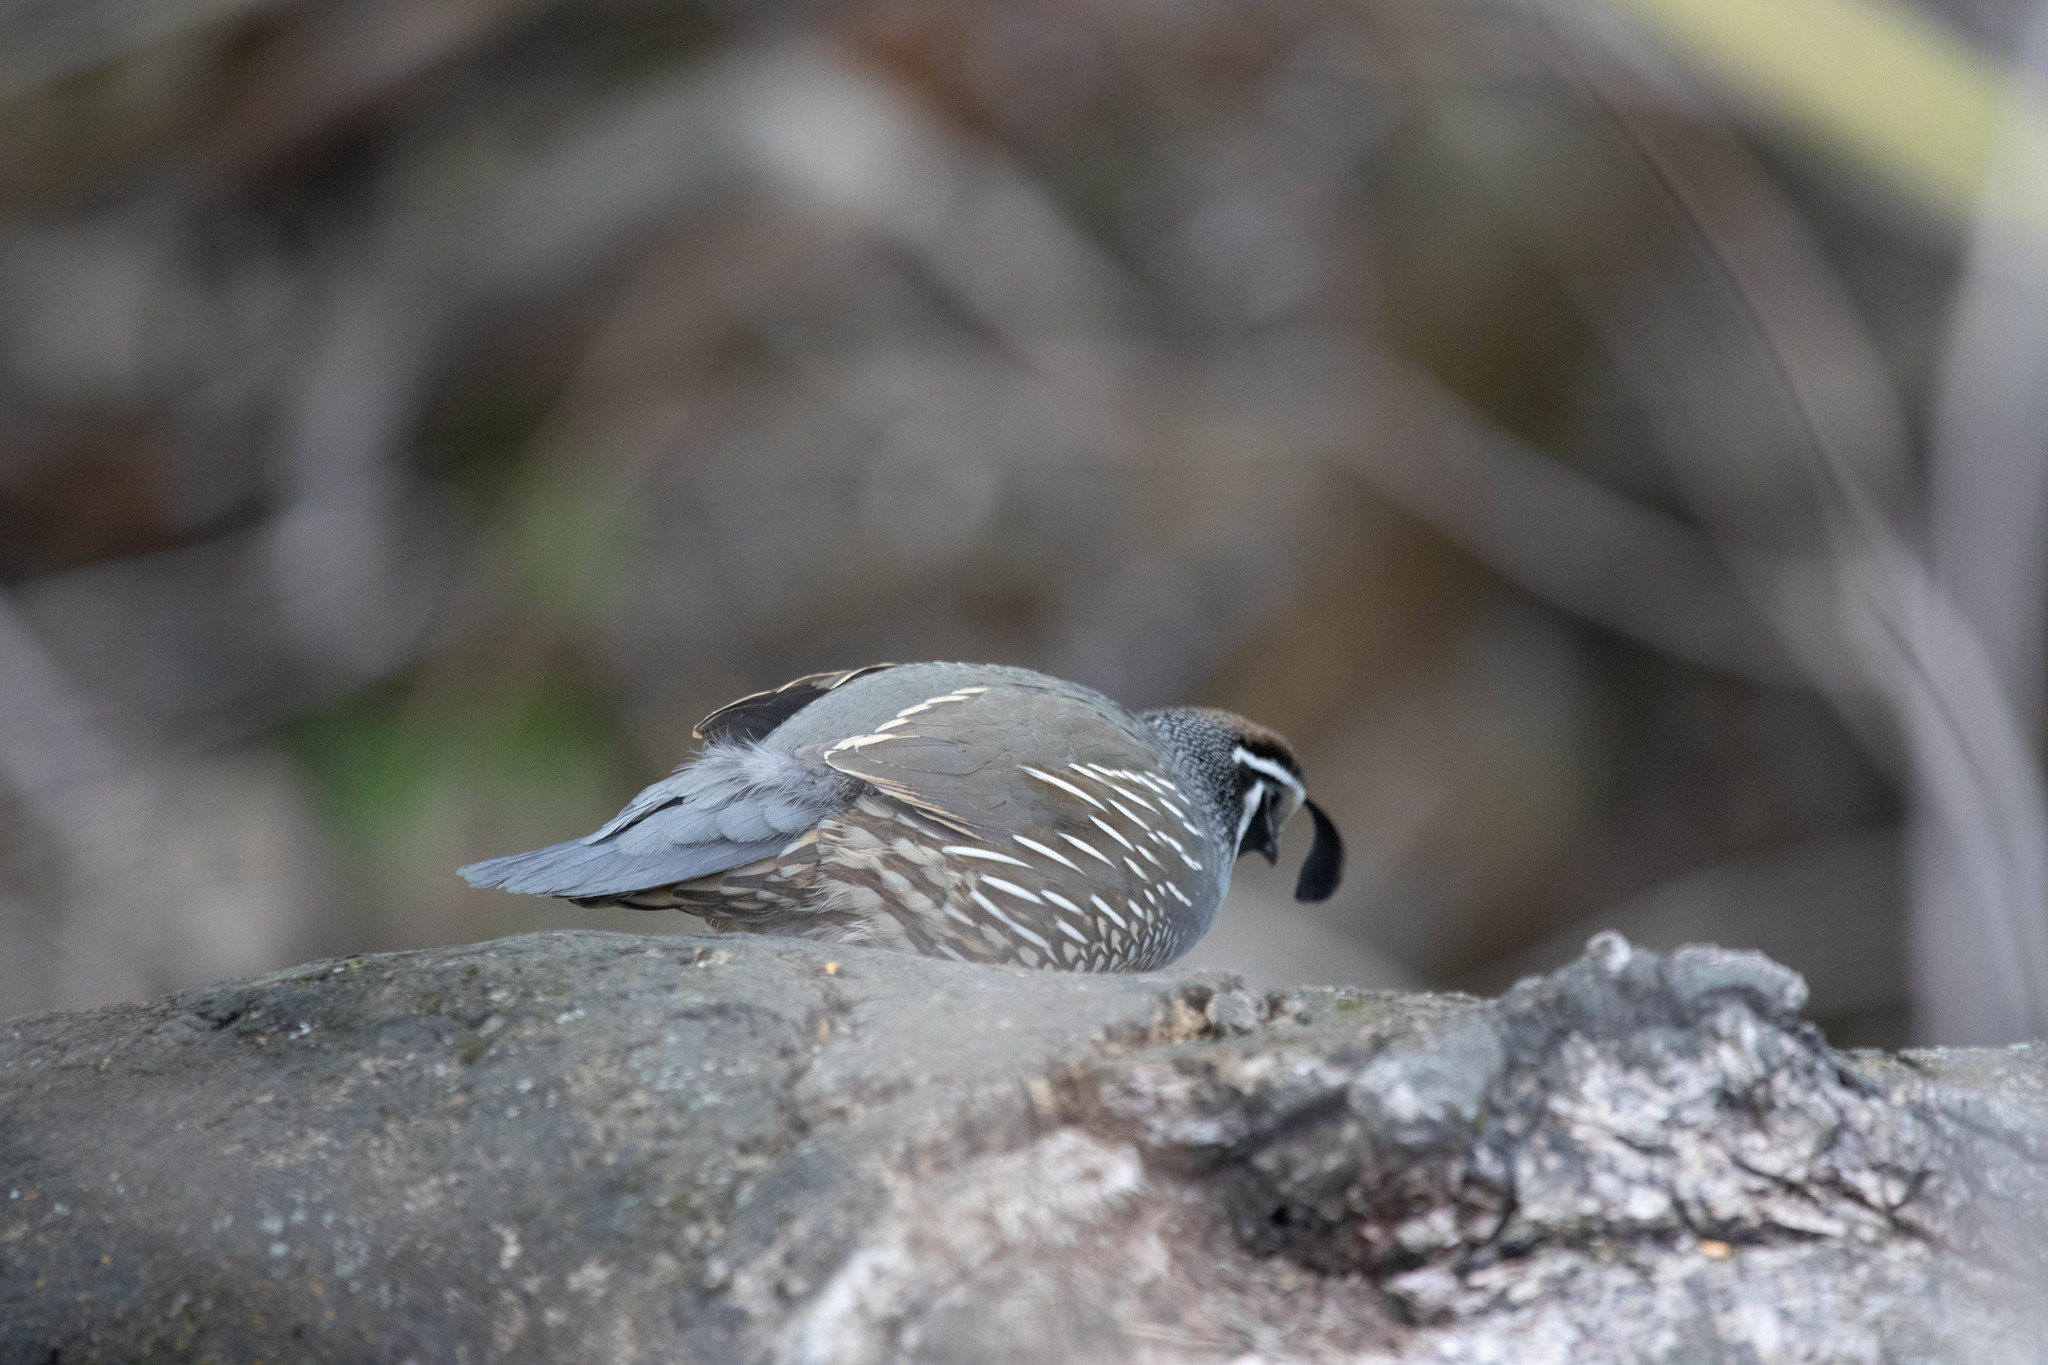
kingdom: Animalia
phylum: Chordata
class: Aves
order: Galliformes
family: Odontophoridae
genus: Callipepla
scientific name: Callipepla californica
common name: California quail
